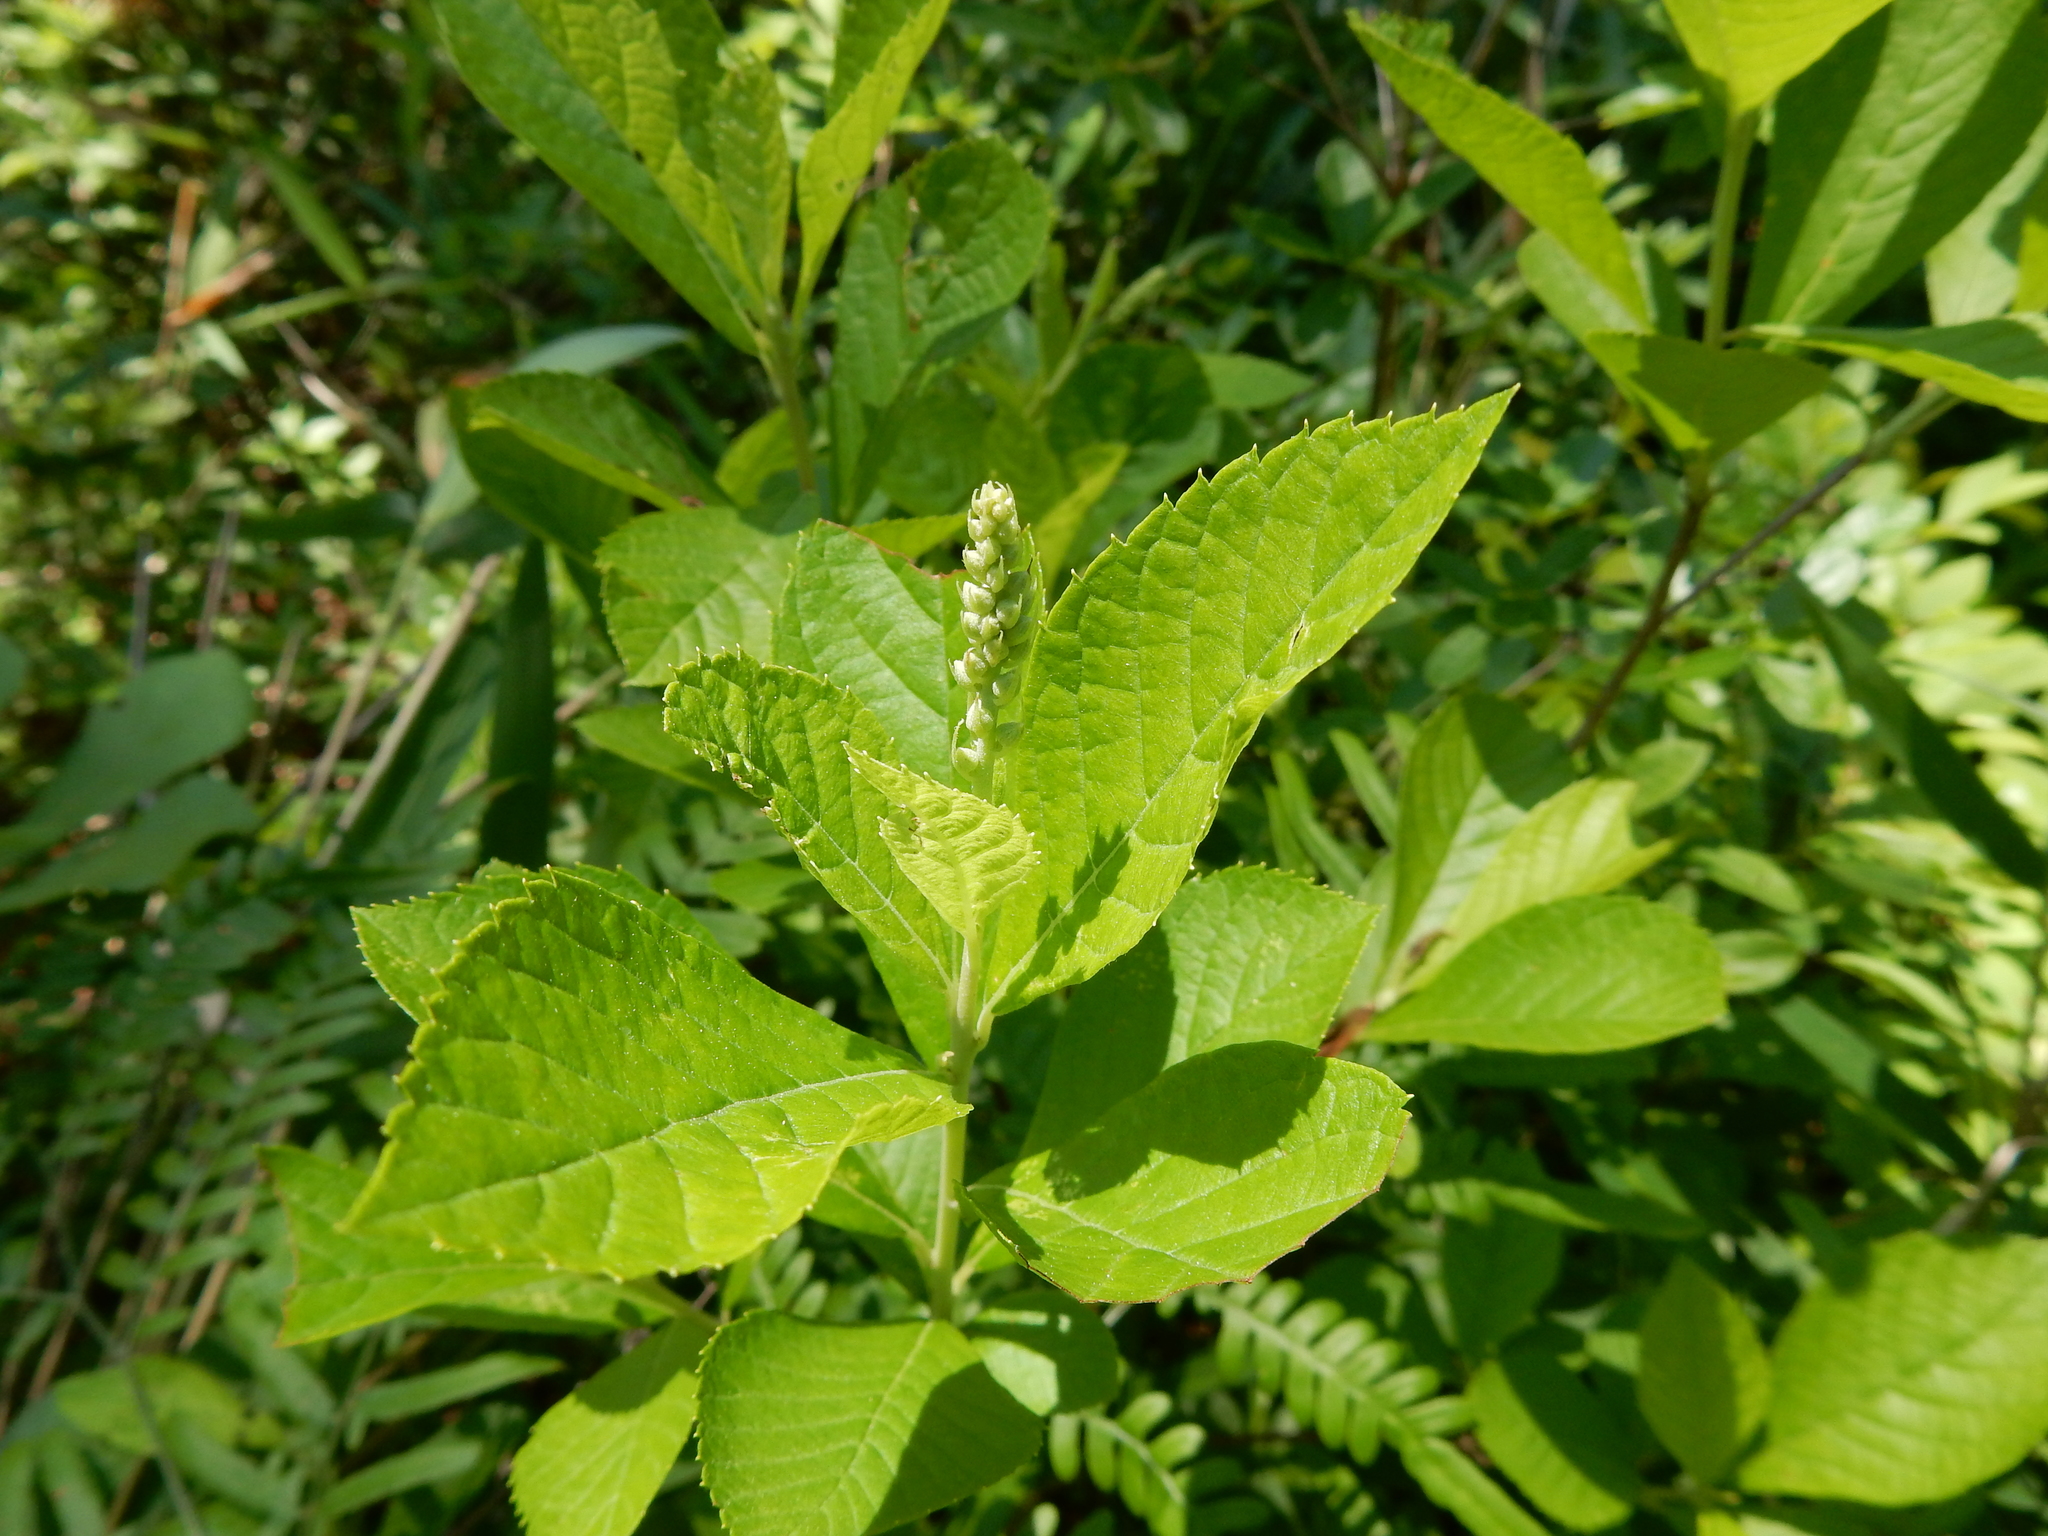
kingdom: Plantae
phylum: Tracheophyta
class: Magnoliopsida
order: Ericales
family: Clethraceae
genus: Clethra
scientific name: Clethra alnifolia
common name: Sweet pepperbush
